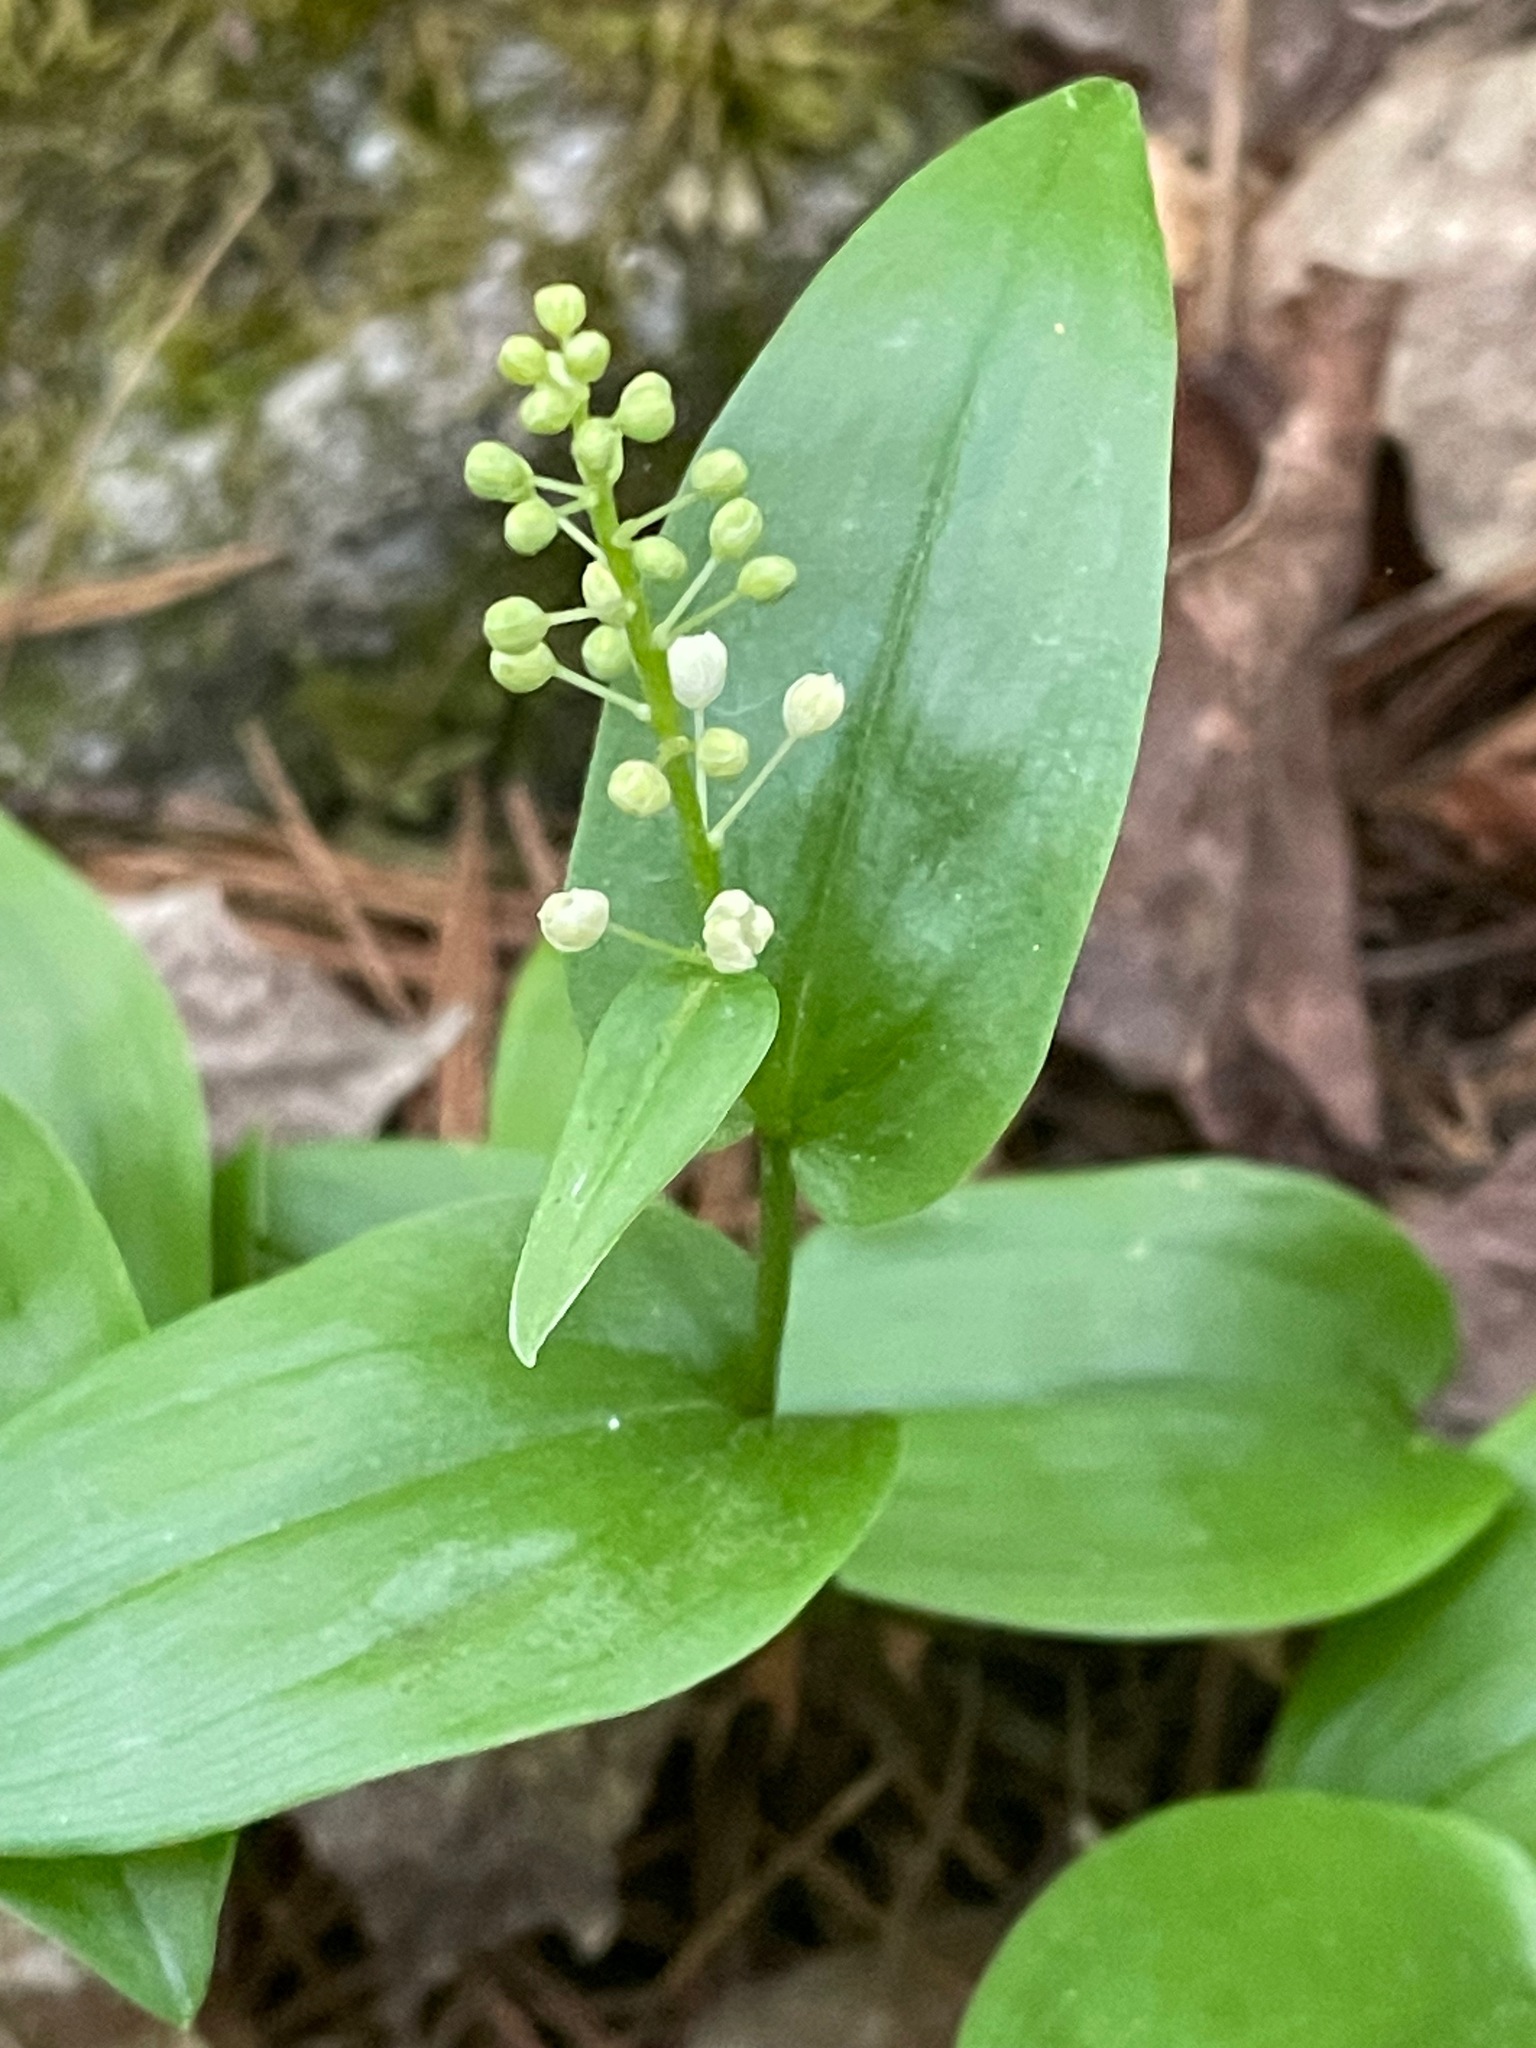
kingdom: Plantae
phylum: Tracheophyta
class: Liliopsida
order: Asparagales
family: Asparagaceae
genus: Maianthemum
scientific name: Maianthemum canadense
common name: False lily-of-the-valley
